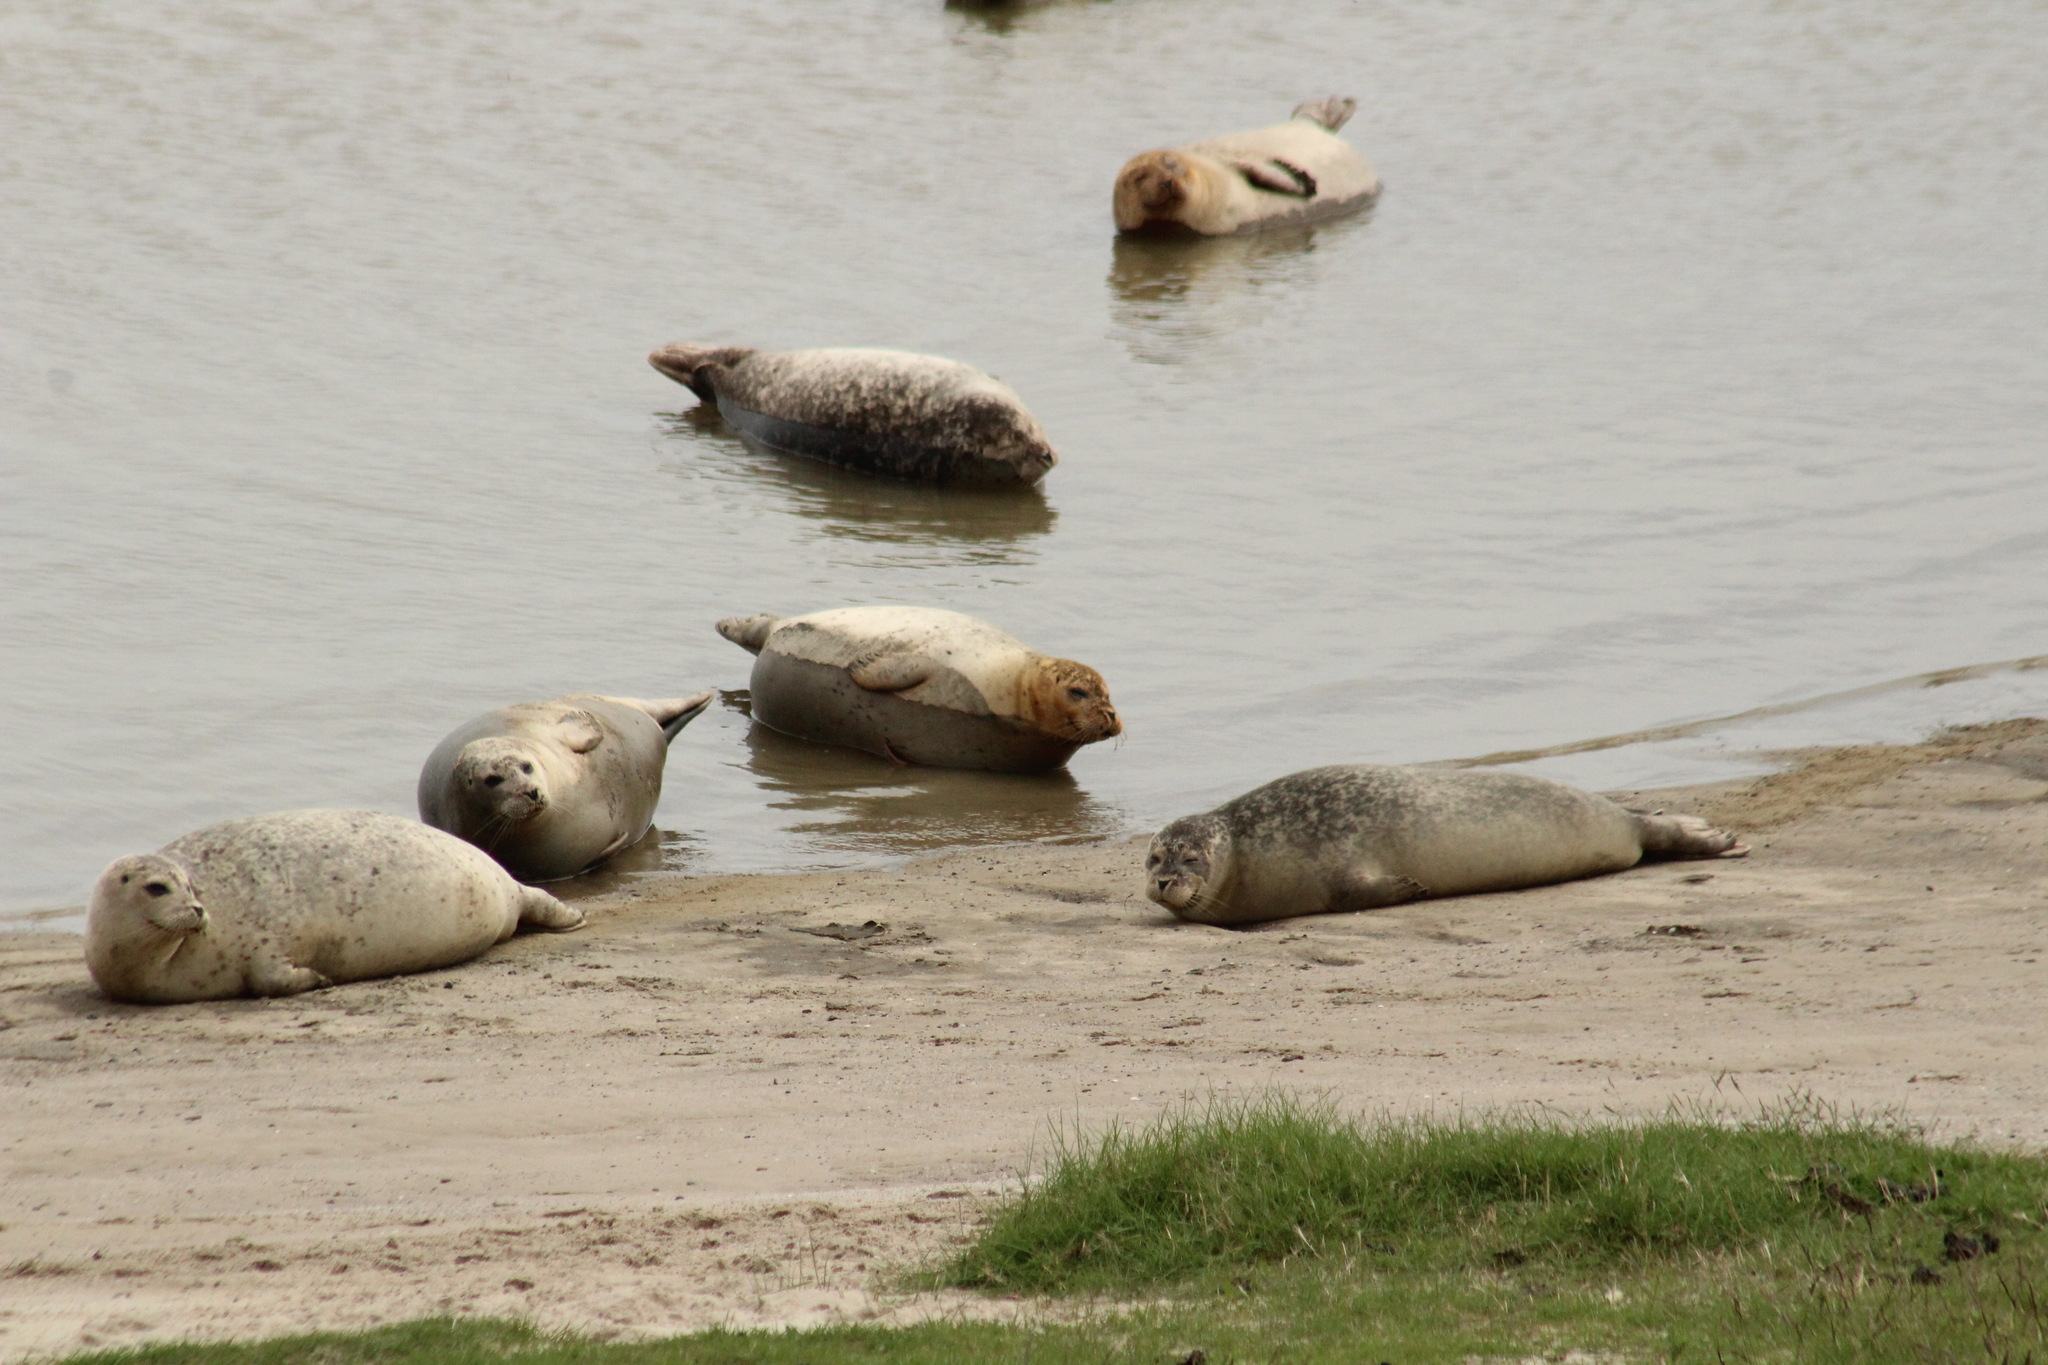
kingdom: Animalia
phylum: Chordata
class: Mammalia
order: Carnivora
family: Phocidae
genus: Phoca
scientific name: Phoca vitulina
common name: Harbor seal
